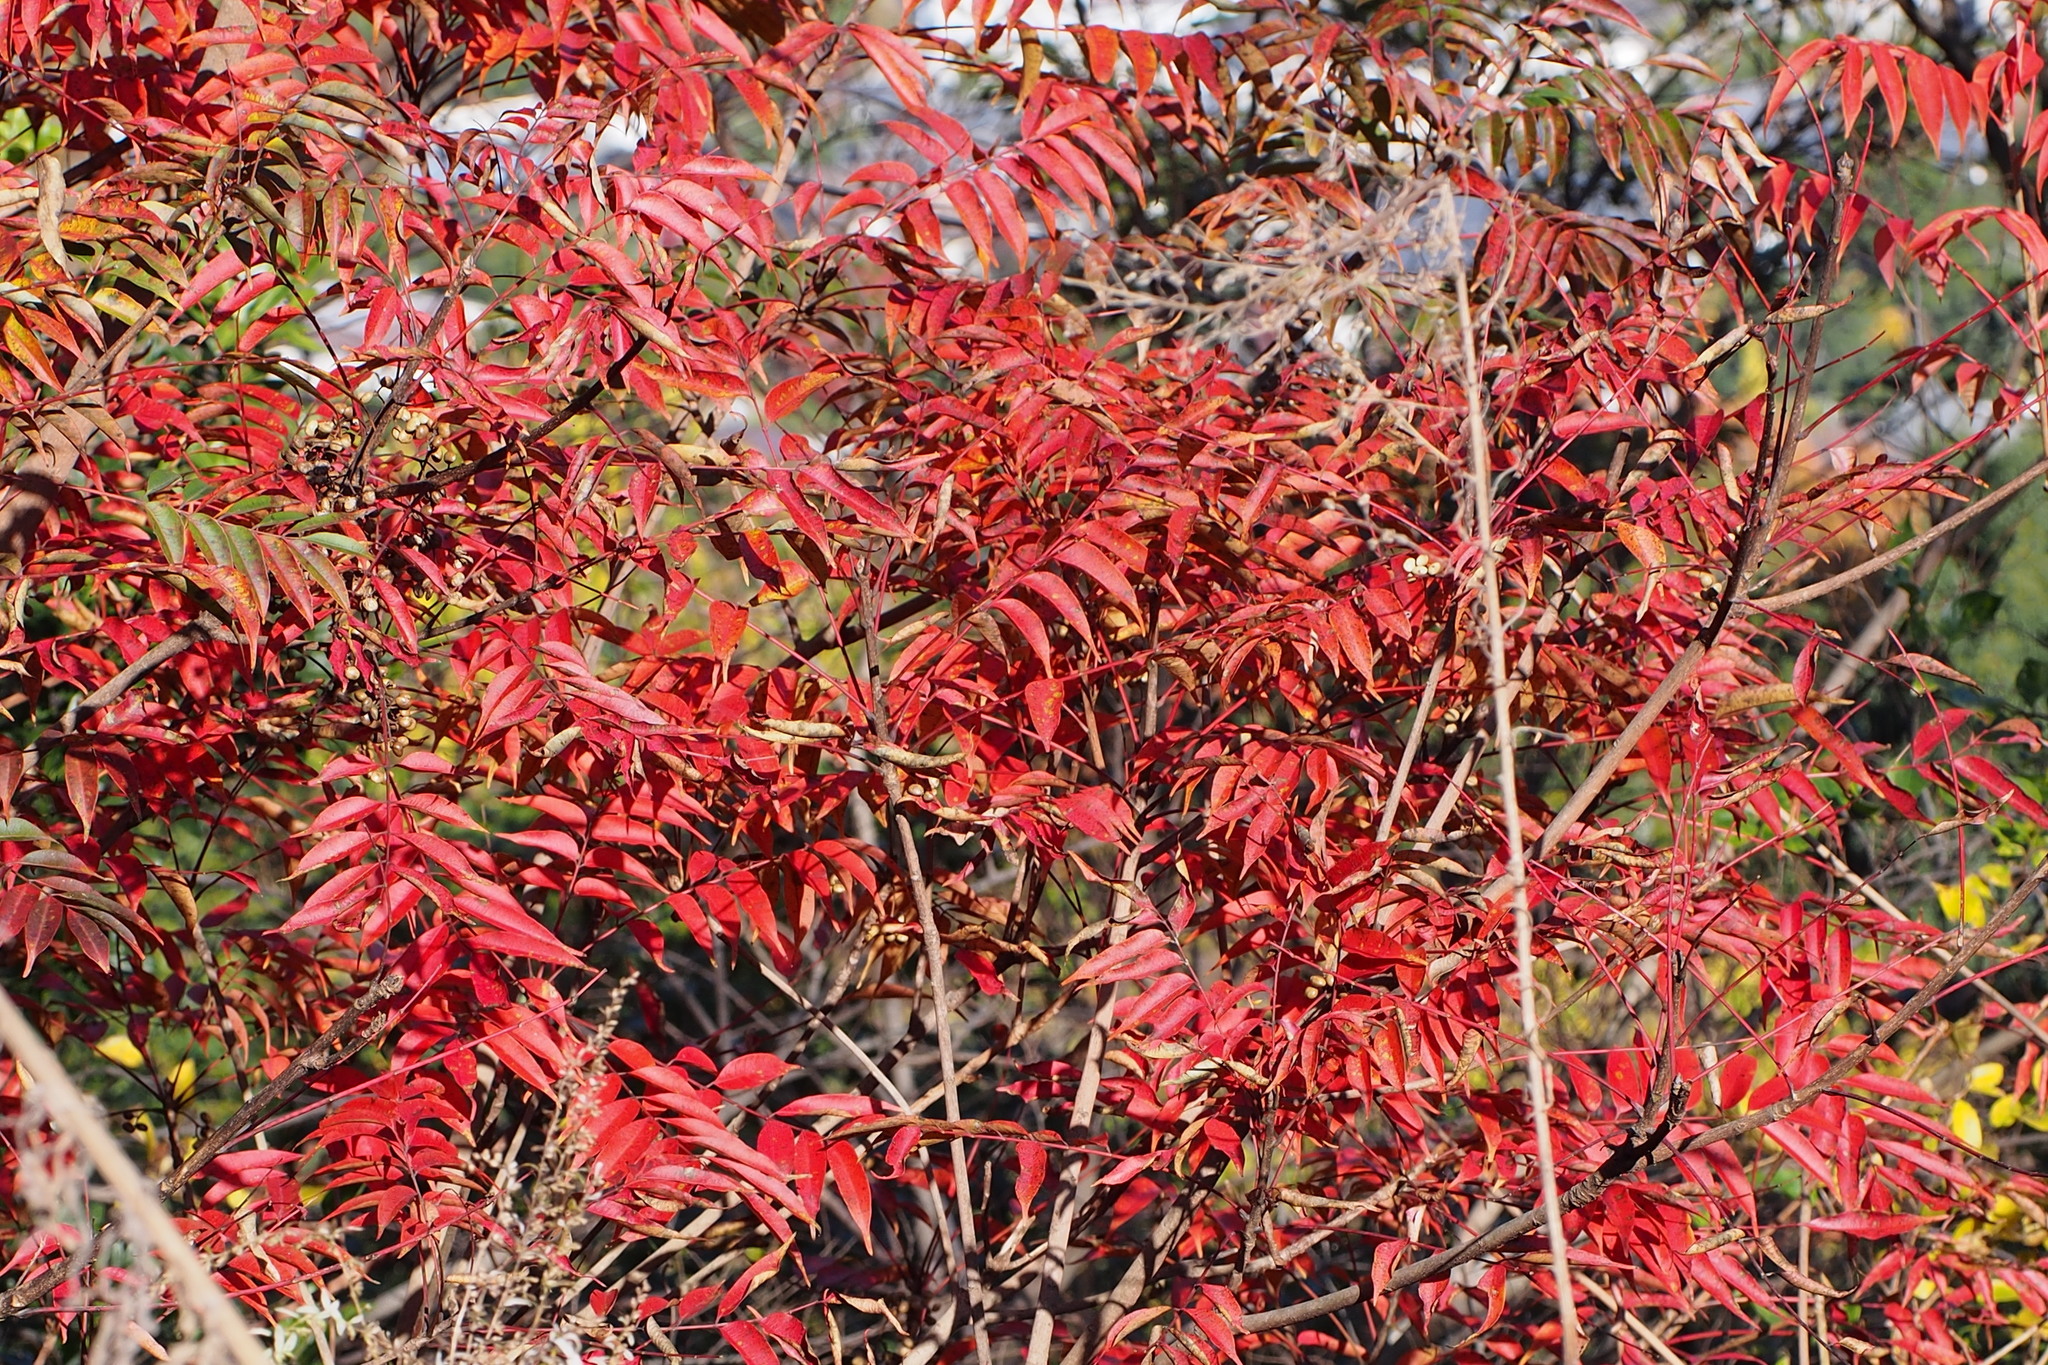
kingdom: Plantae
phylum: Tracheophyta
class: Magnoliopsida
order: Sapindales
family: Anacardiaceae
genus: Toxicodendron
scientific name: Toxicodendron succedaneum
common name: Wax tree
